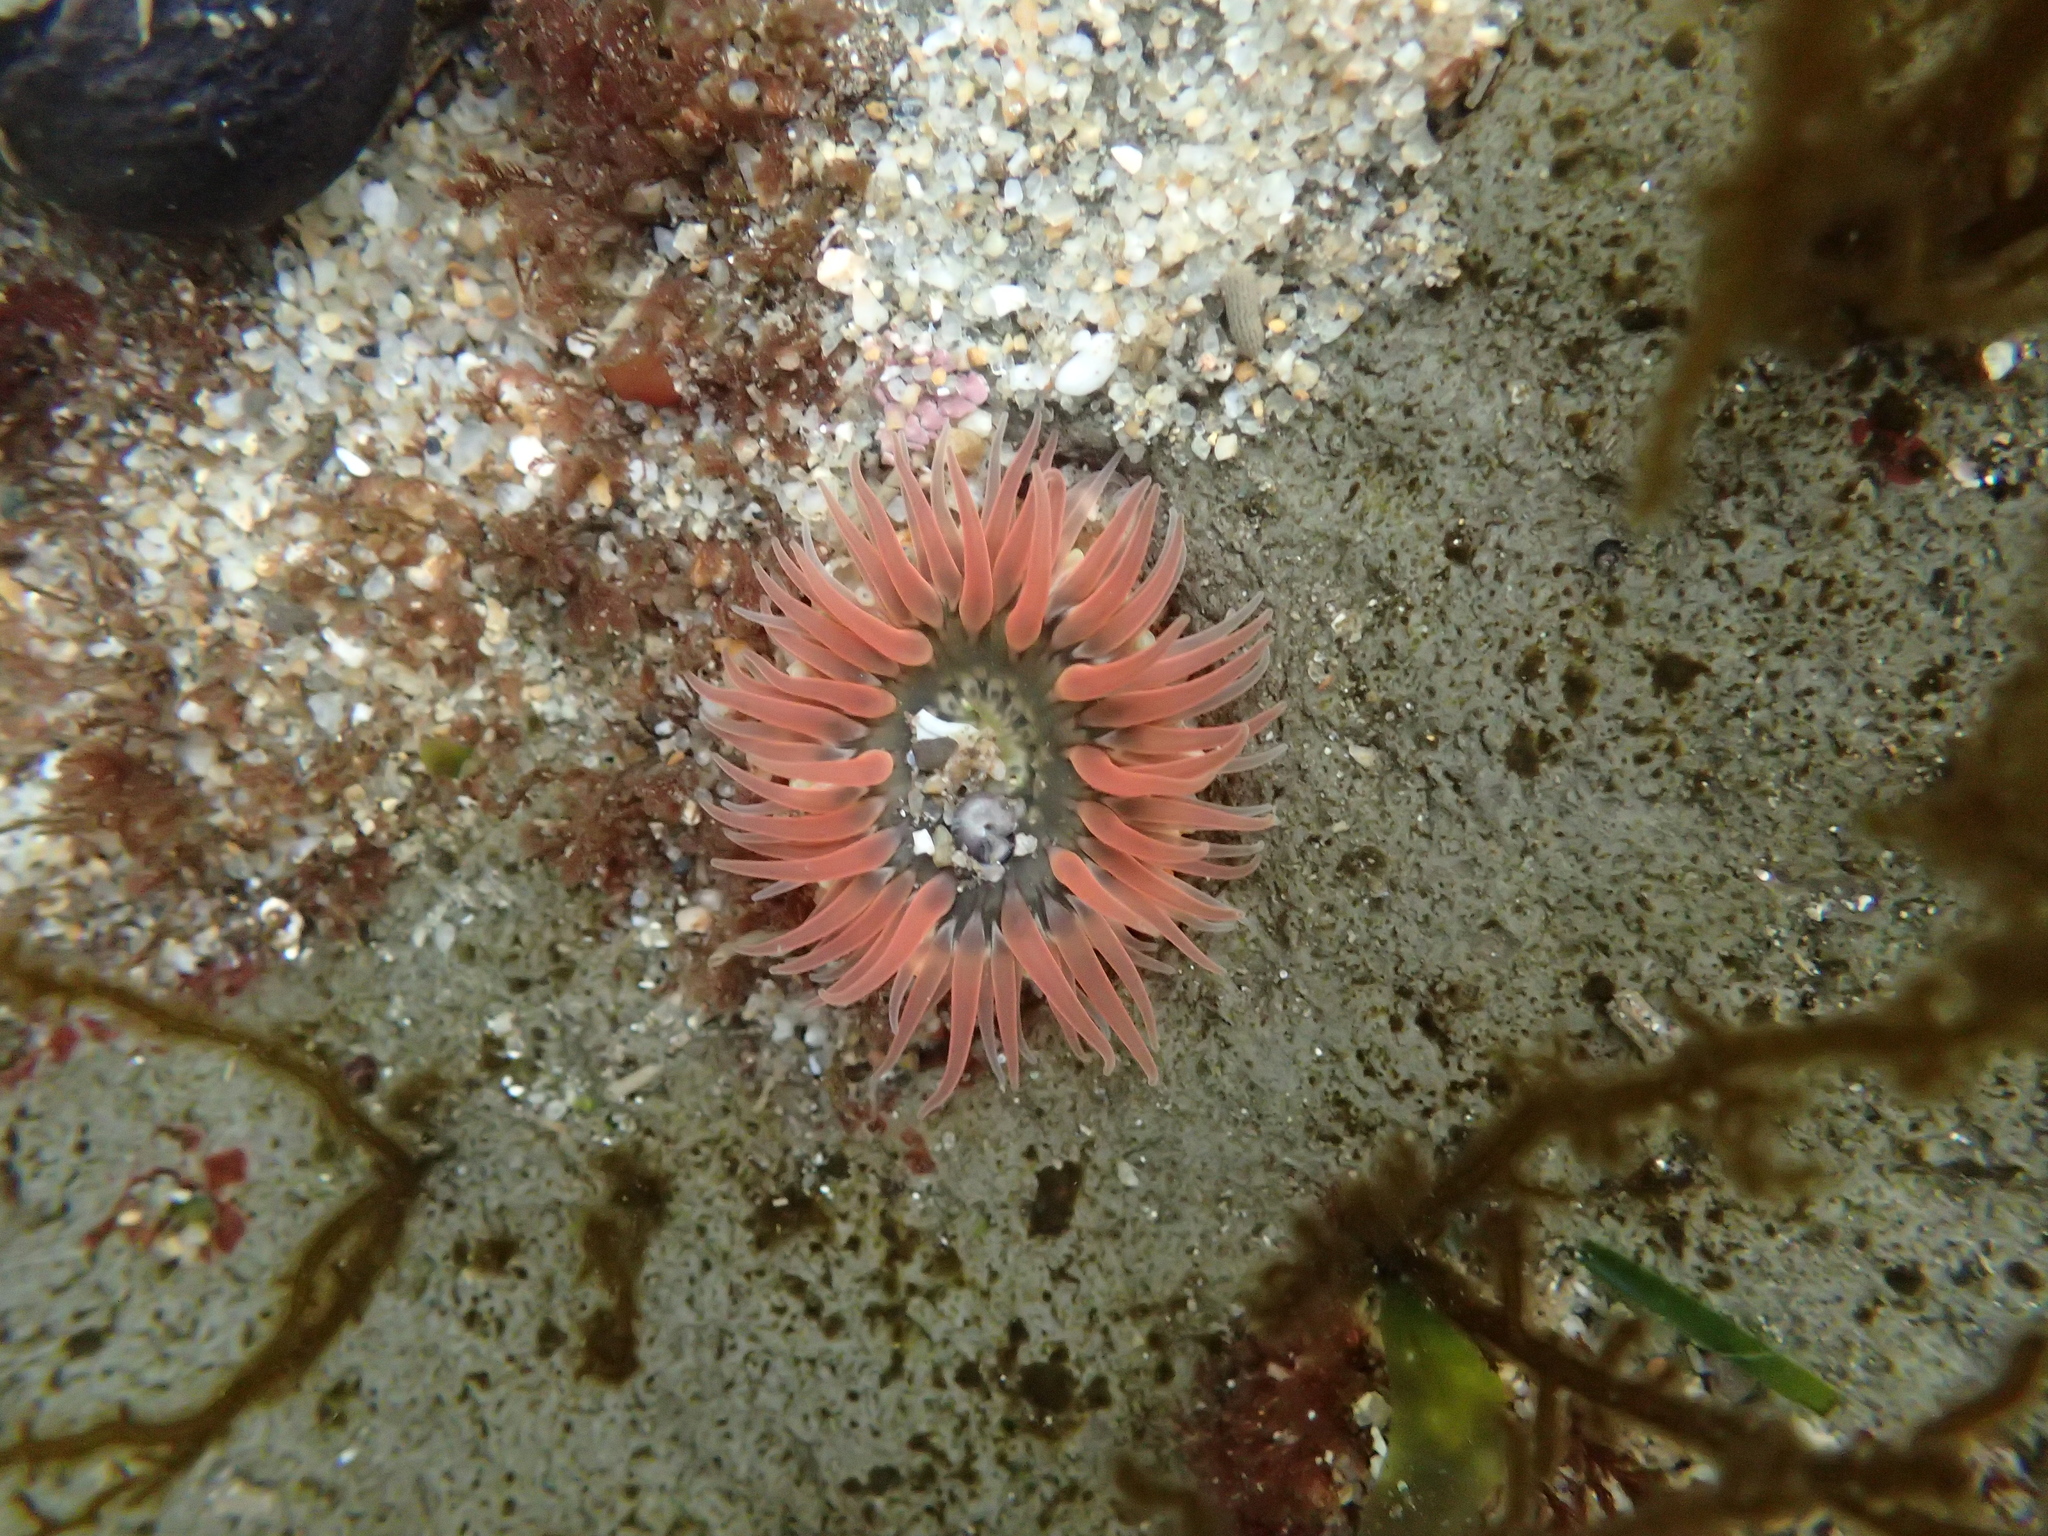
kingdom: Animalia
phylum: Cnidaria
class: Anthozoa
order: Actiniaria
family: Actiniidae
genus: Anthopleura
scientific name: Anthopleura artemisia
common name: Buried sea anemone
